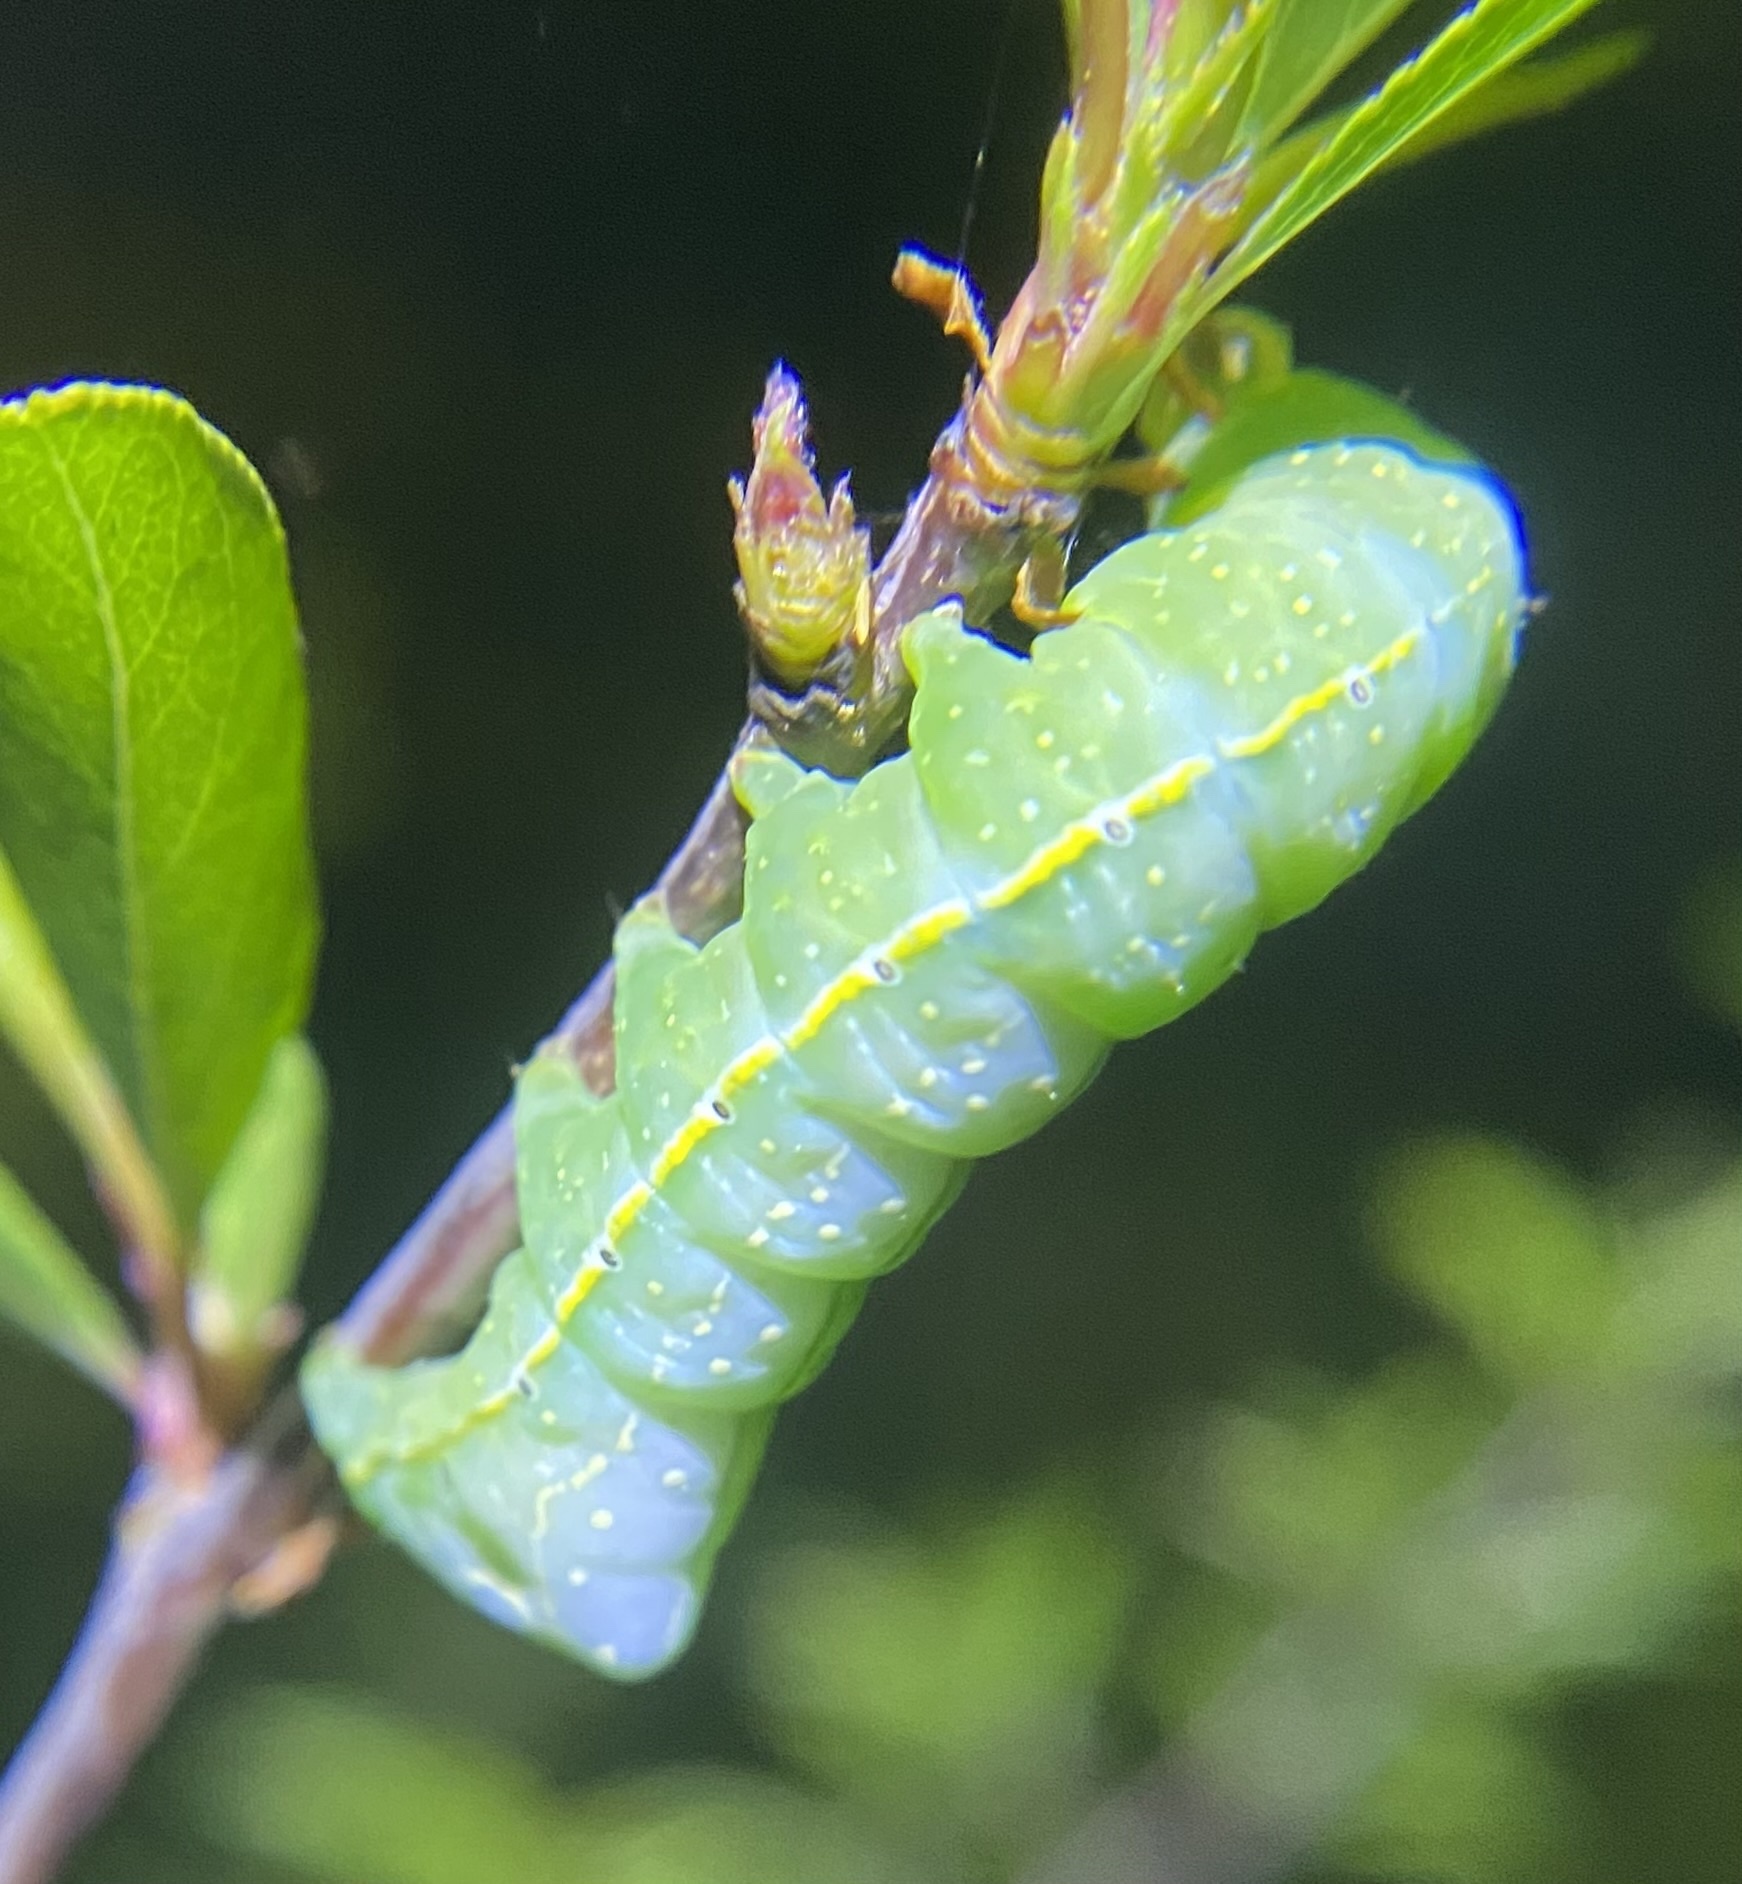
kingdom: Animalia
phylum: Arthropoda
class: Insecta
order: Lepidoptera
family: Noctuidae
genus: Amphipyra
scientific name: Amphipyra pyramidoides
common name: American copper underwing
